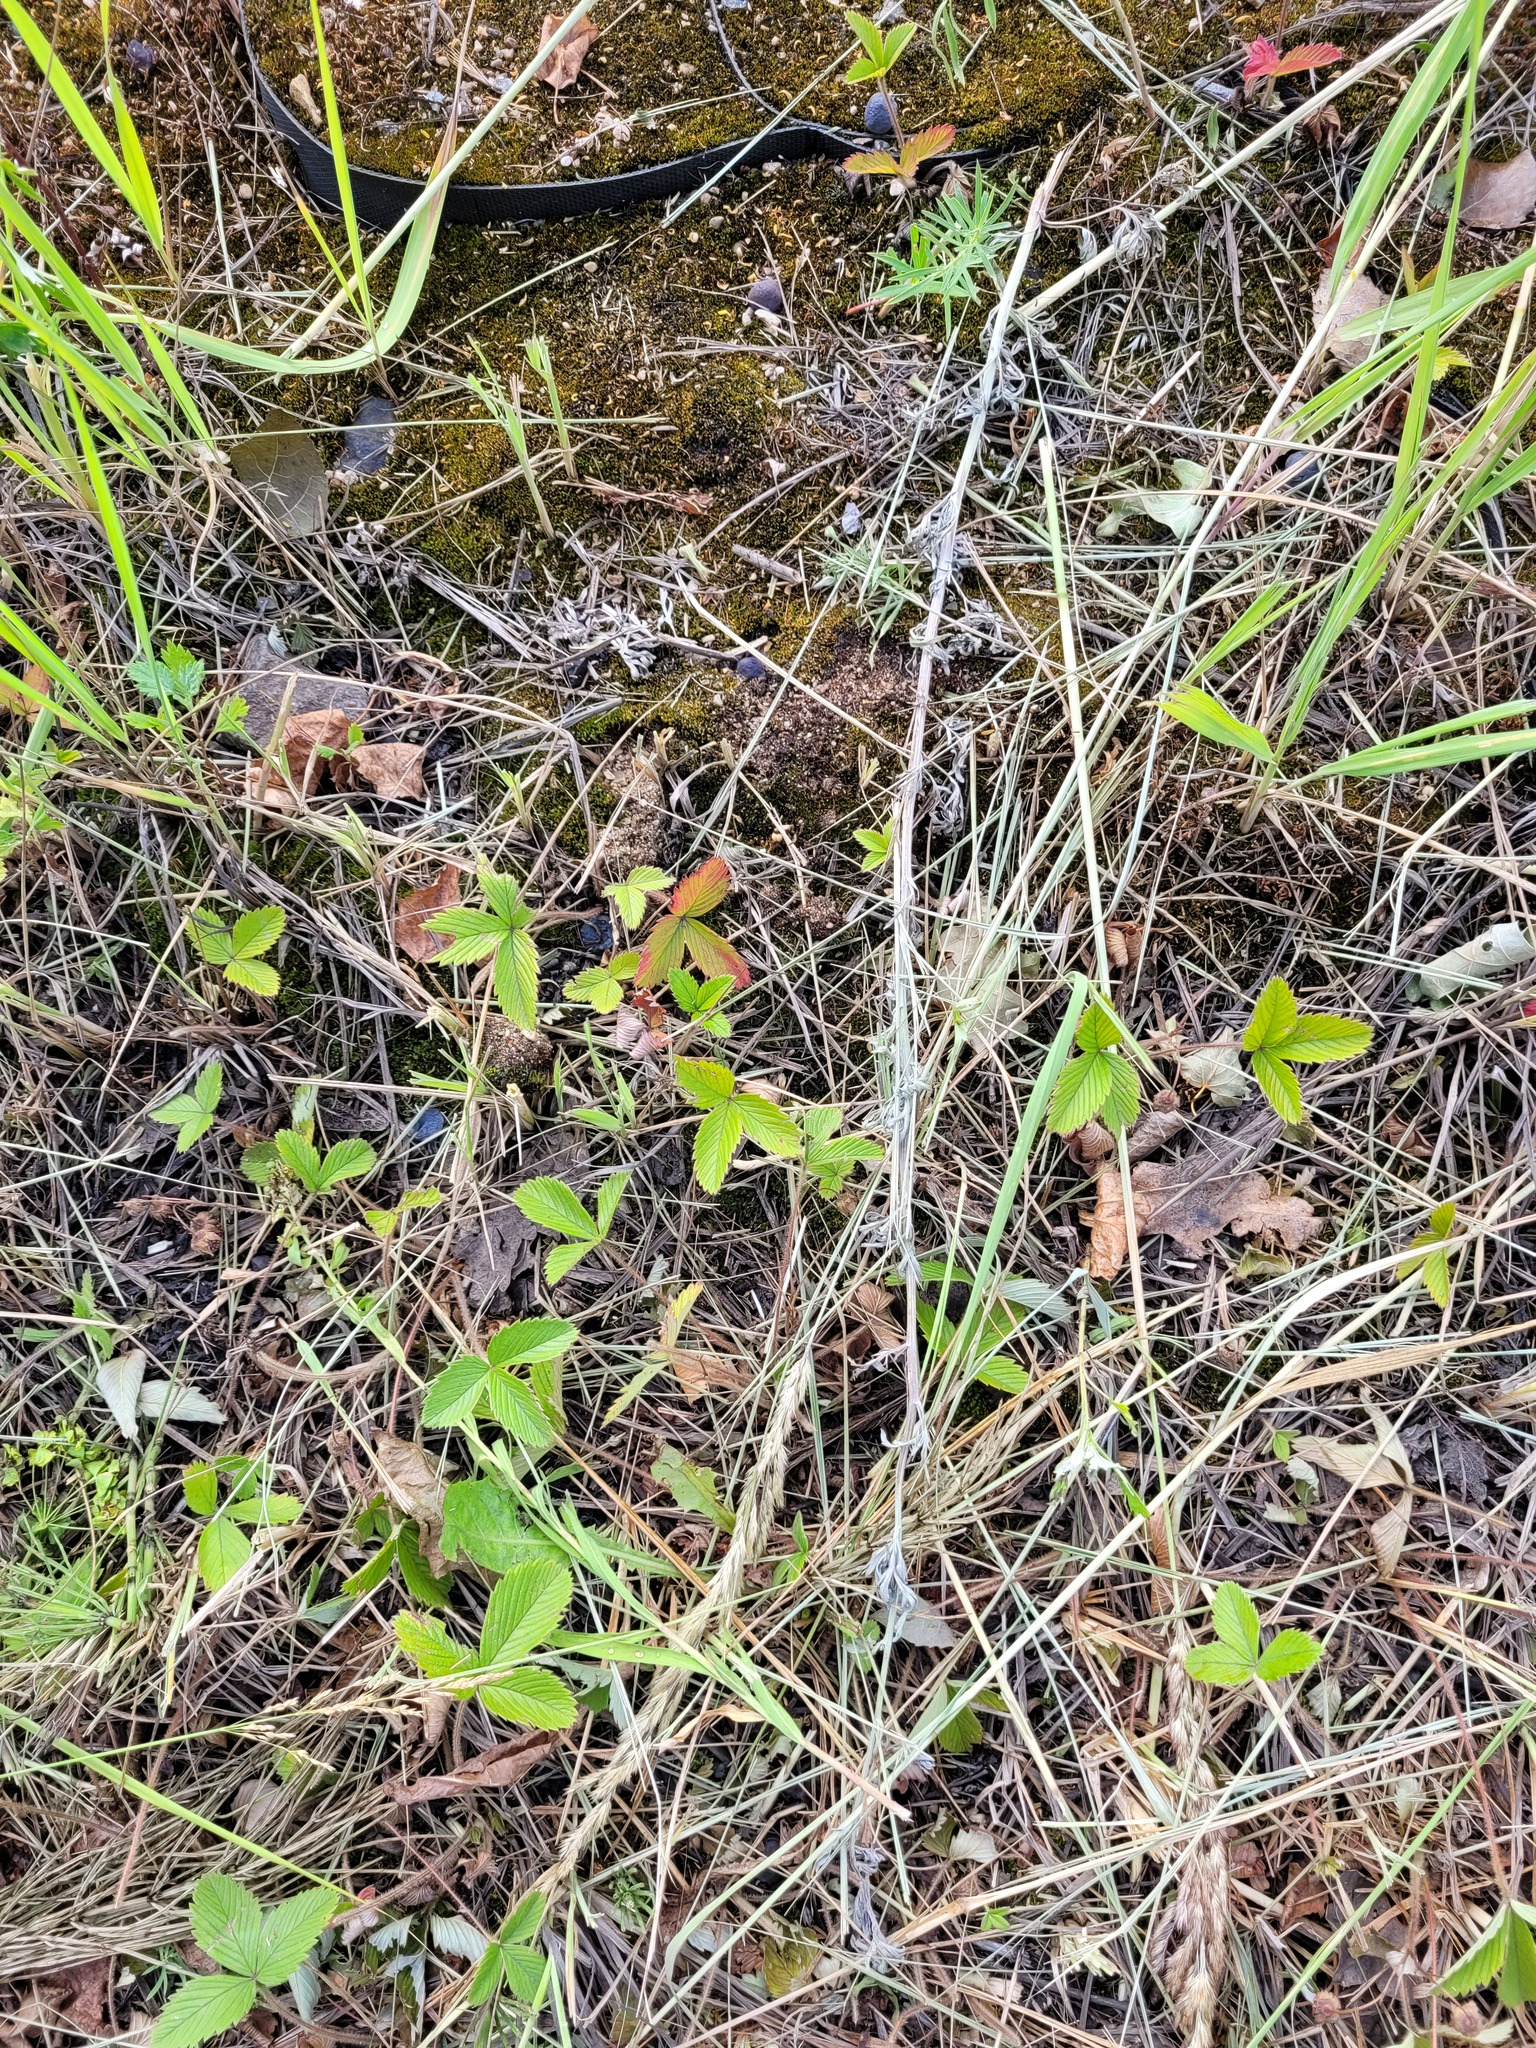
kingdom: Plantae
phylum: Tracheophyta
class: Magnoliopsida
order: Rosales
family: Rosaceae
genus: Fragaria
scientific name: Fragaria viridis
